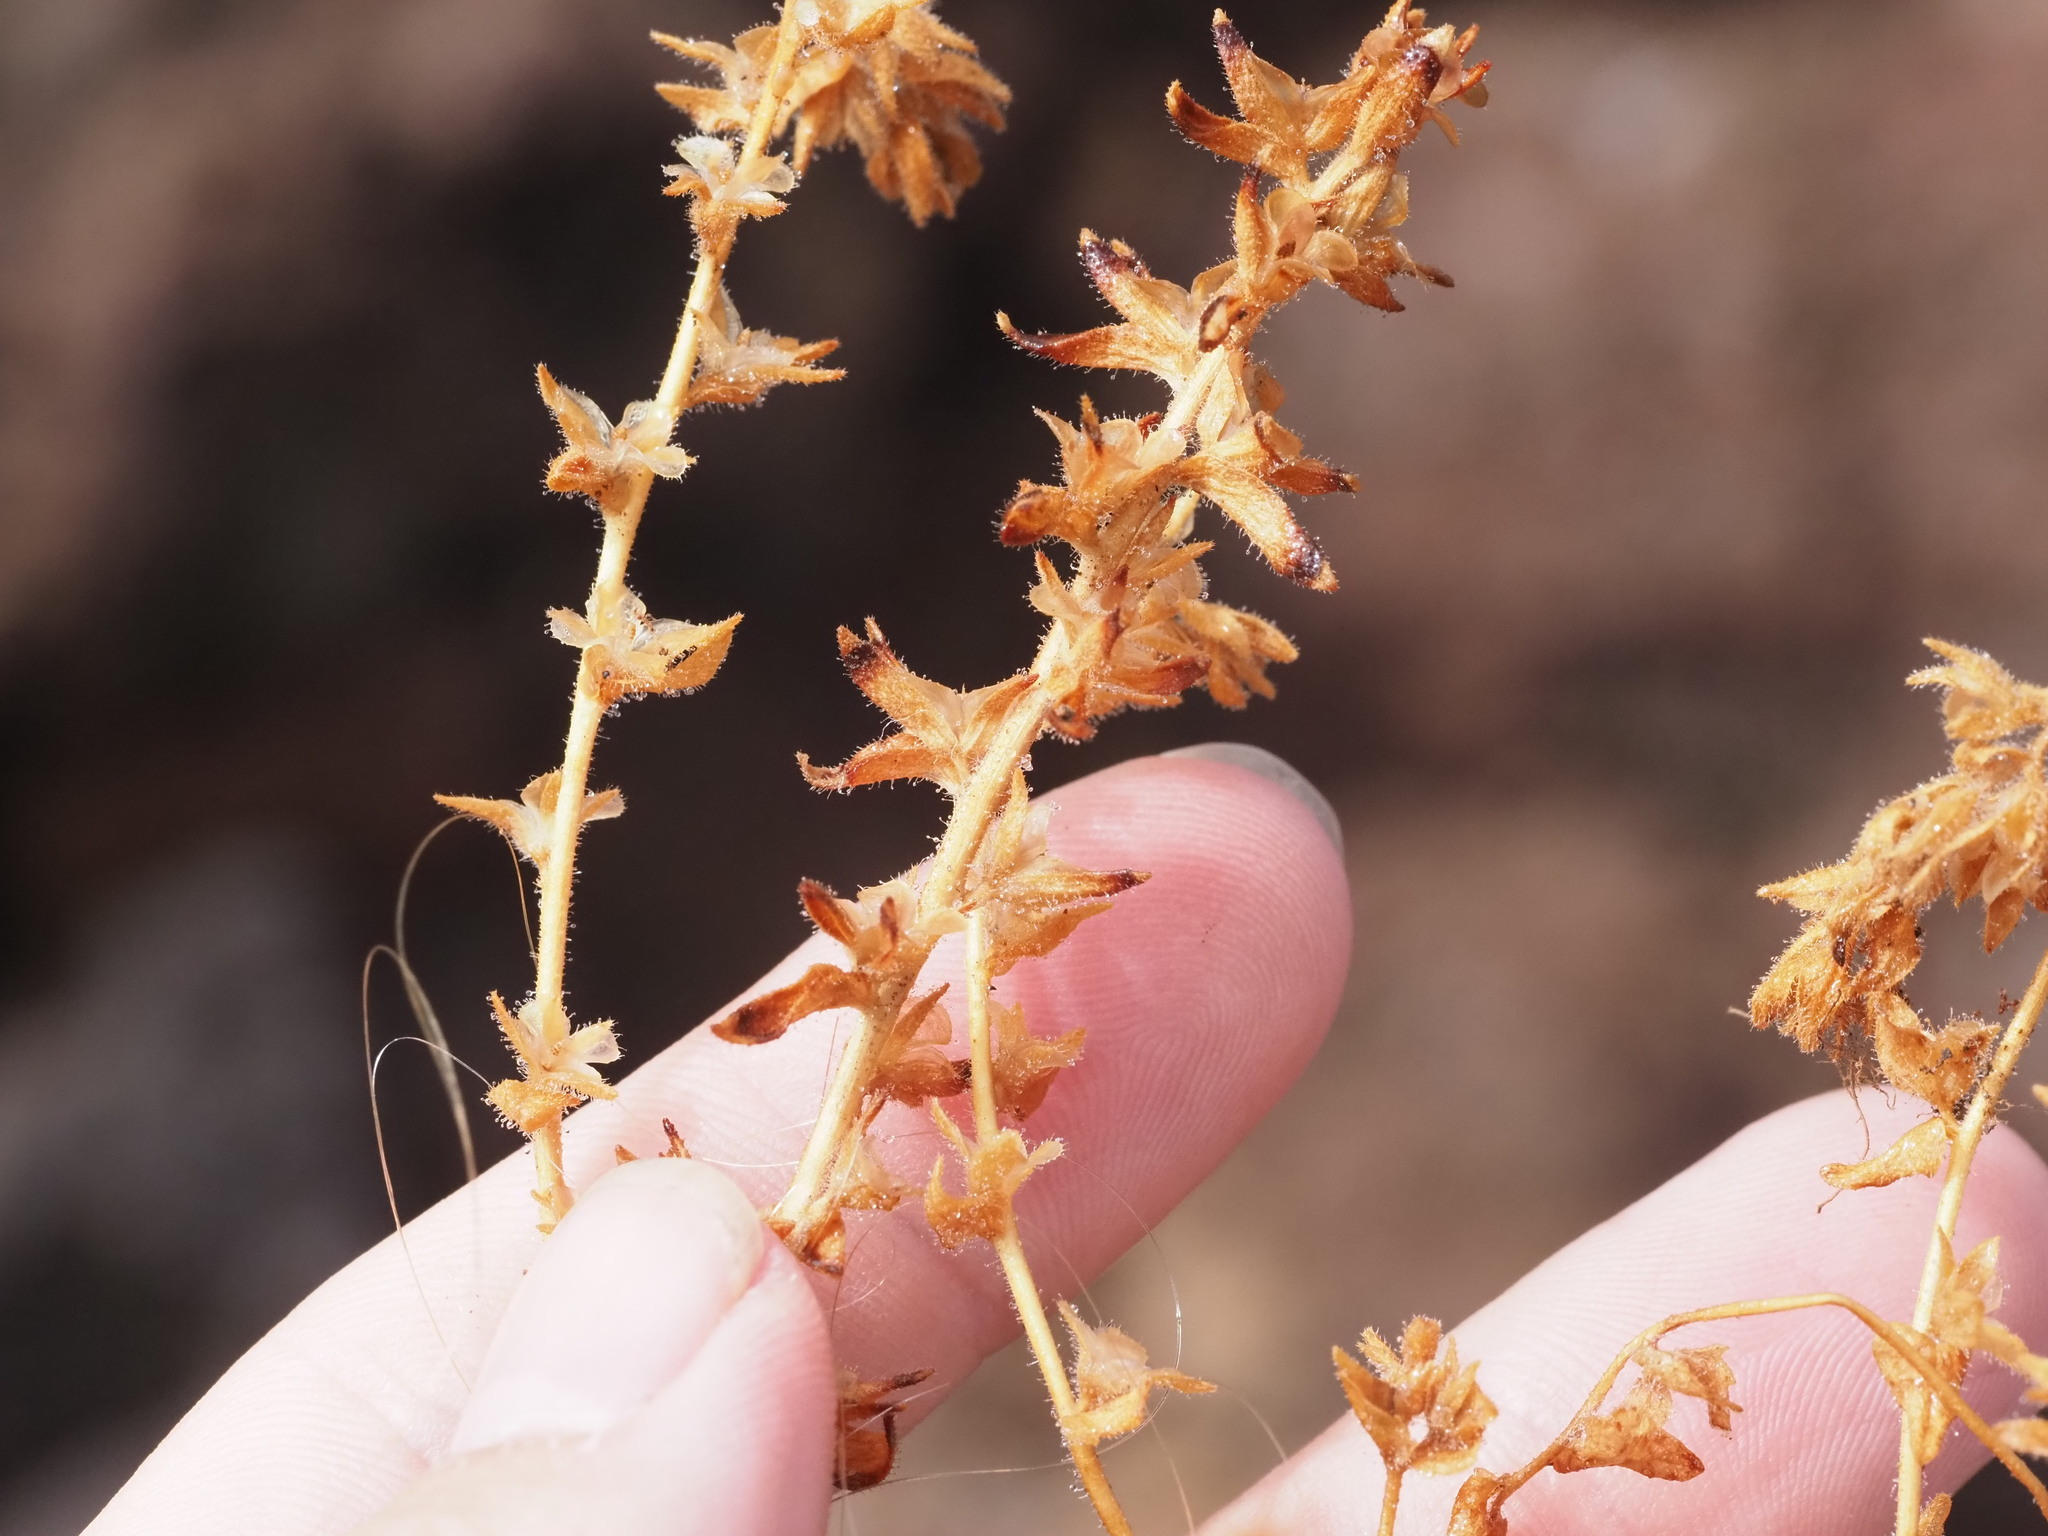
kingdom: Plantae
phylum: Tracheophyta
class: Magnoliopsida
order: Lamiales
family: Plantaginaceae
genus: Veronica
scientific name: Veronica arvensis
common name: Corn speedwell
